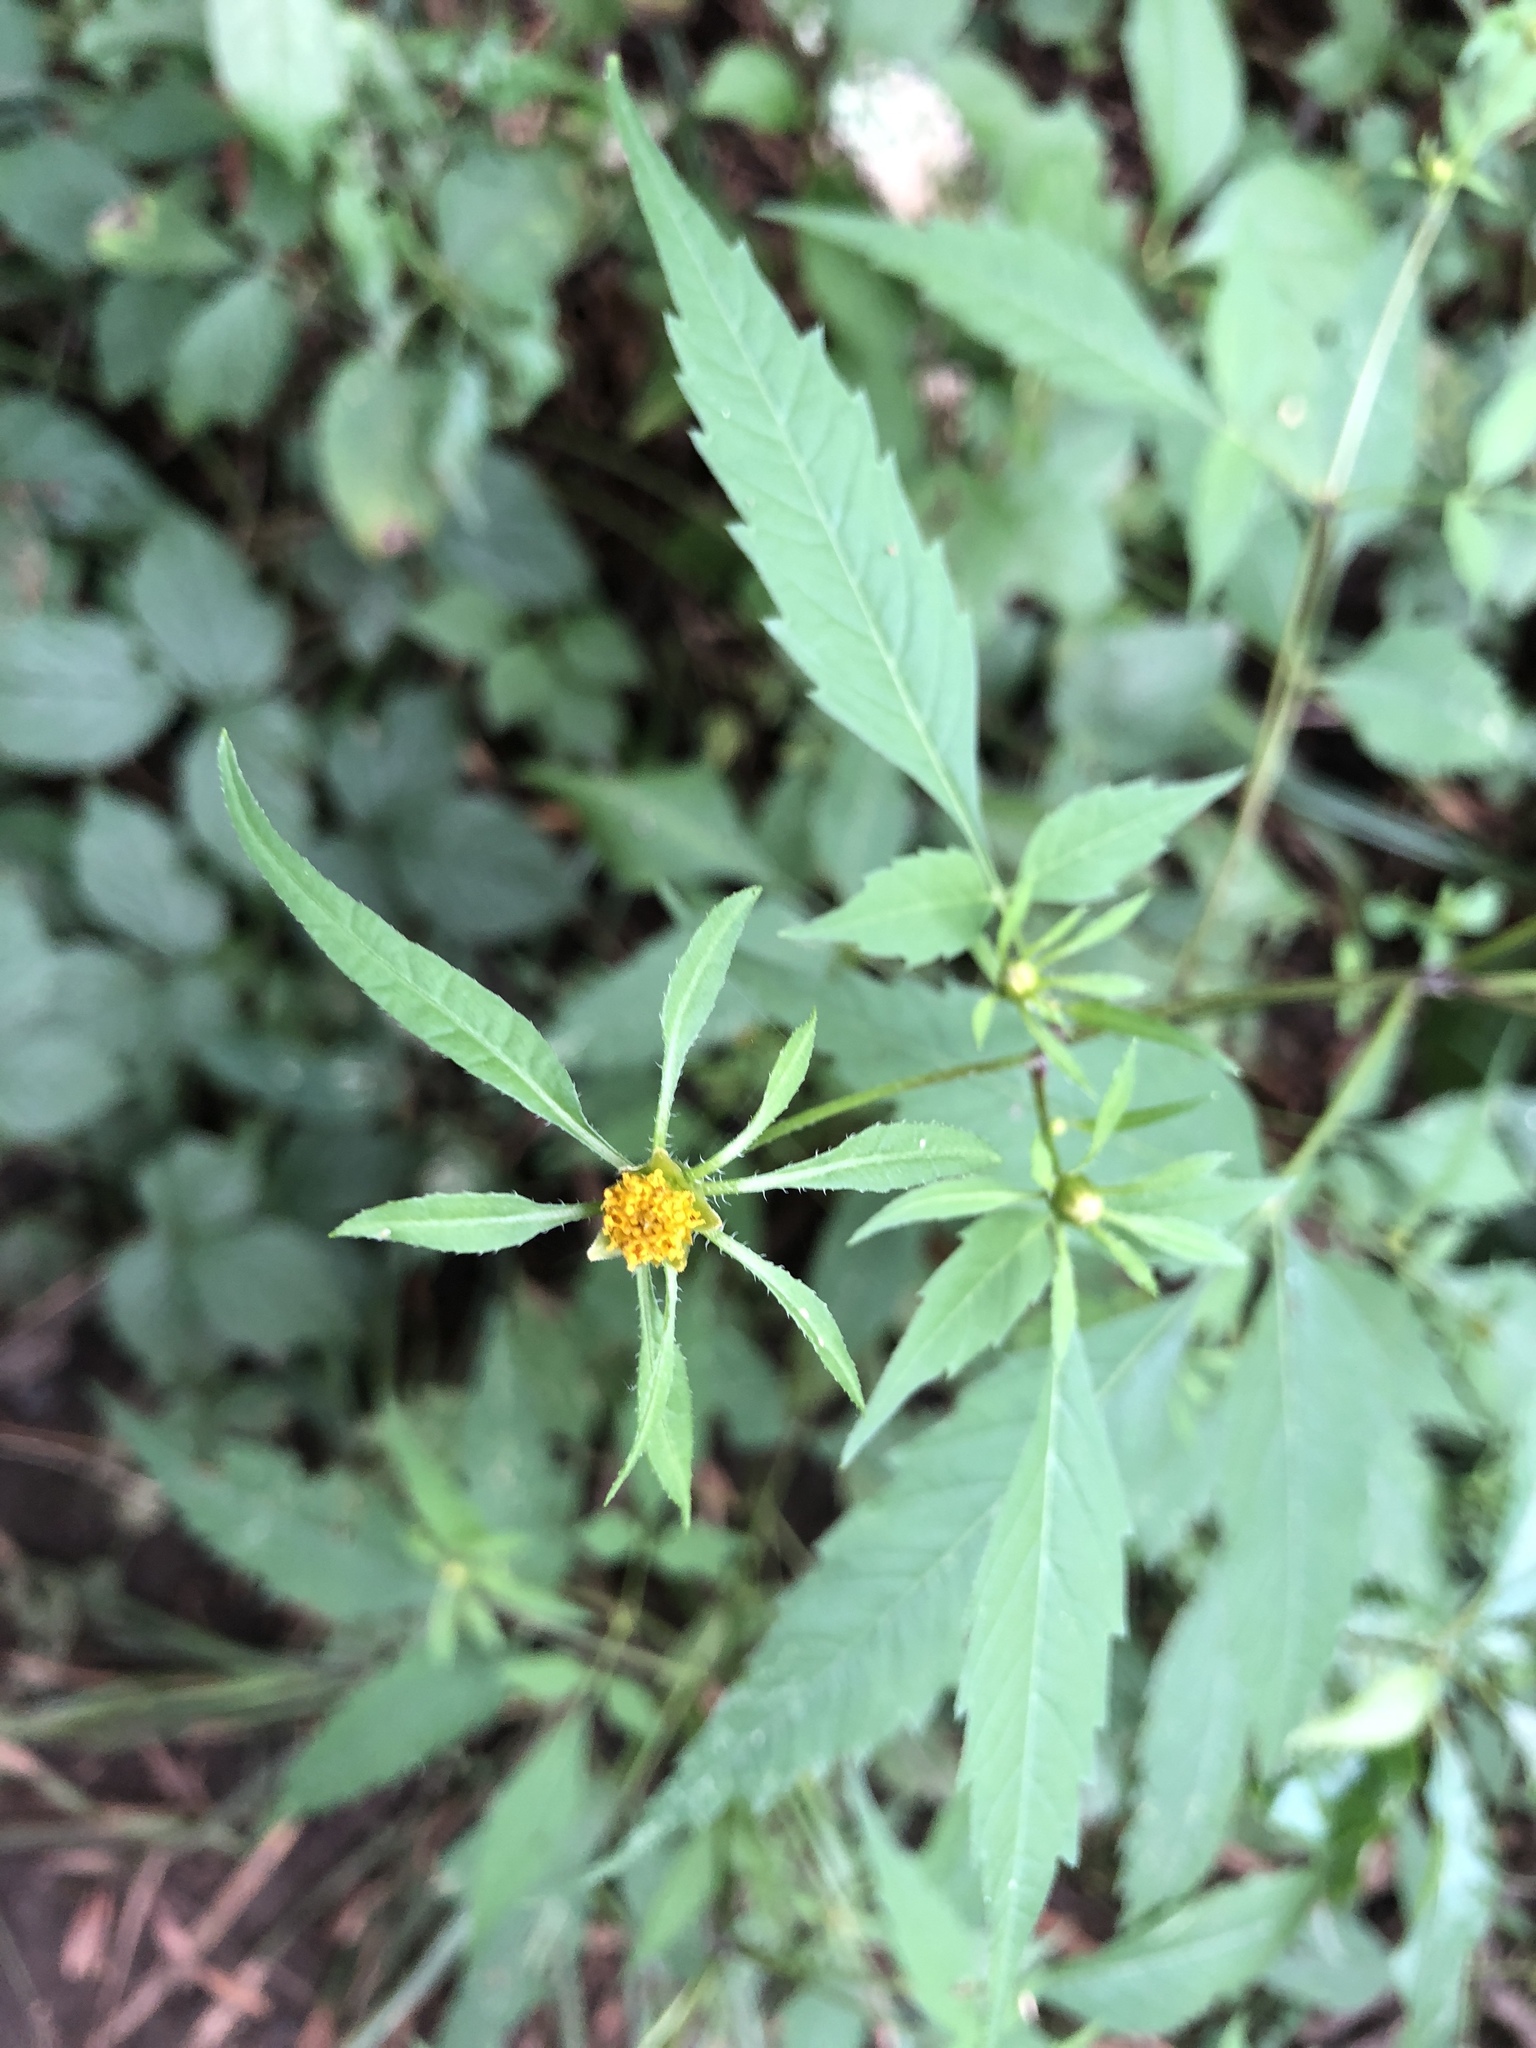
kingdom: Plantae
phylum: Tracheophyta
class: Magnoliopsida
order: Asterales
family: Asteraceae
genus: Bidens
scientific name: Bidens frondosa
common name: Beggarticks
